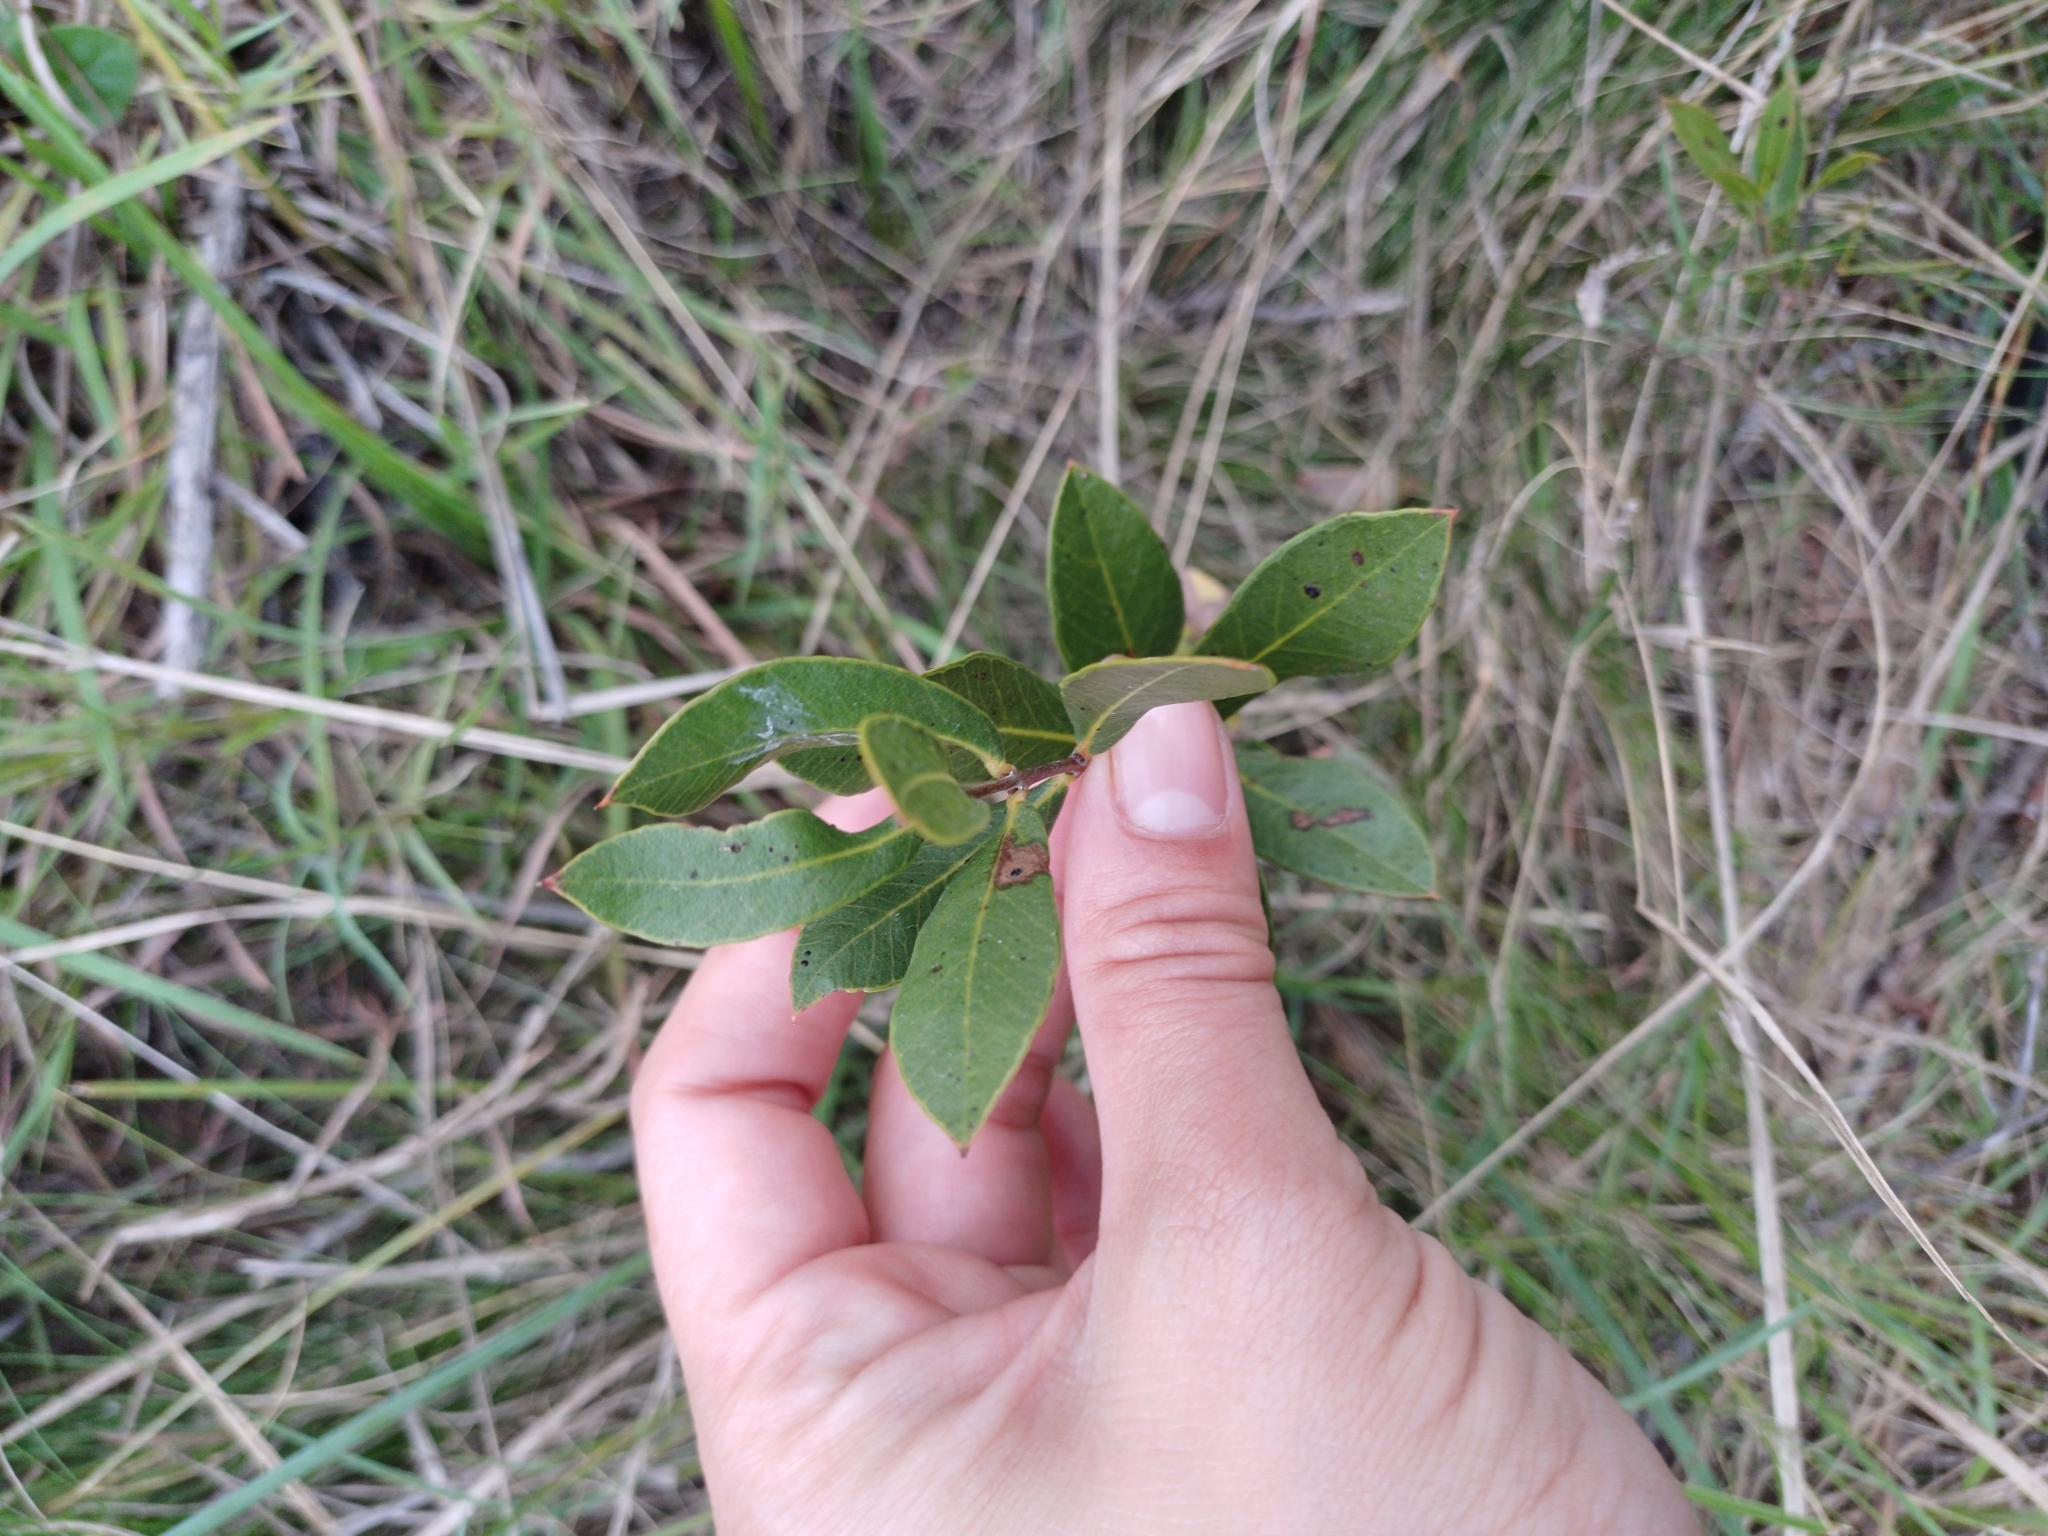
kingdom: Plantae
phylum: Tracheophyta
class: Magnoliopsida
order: Myrtales
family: Myrtaceae
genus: Psidium
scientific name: Psidium salutare
